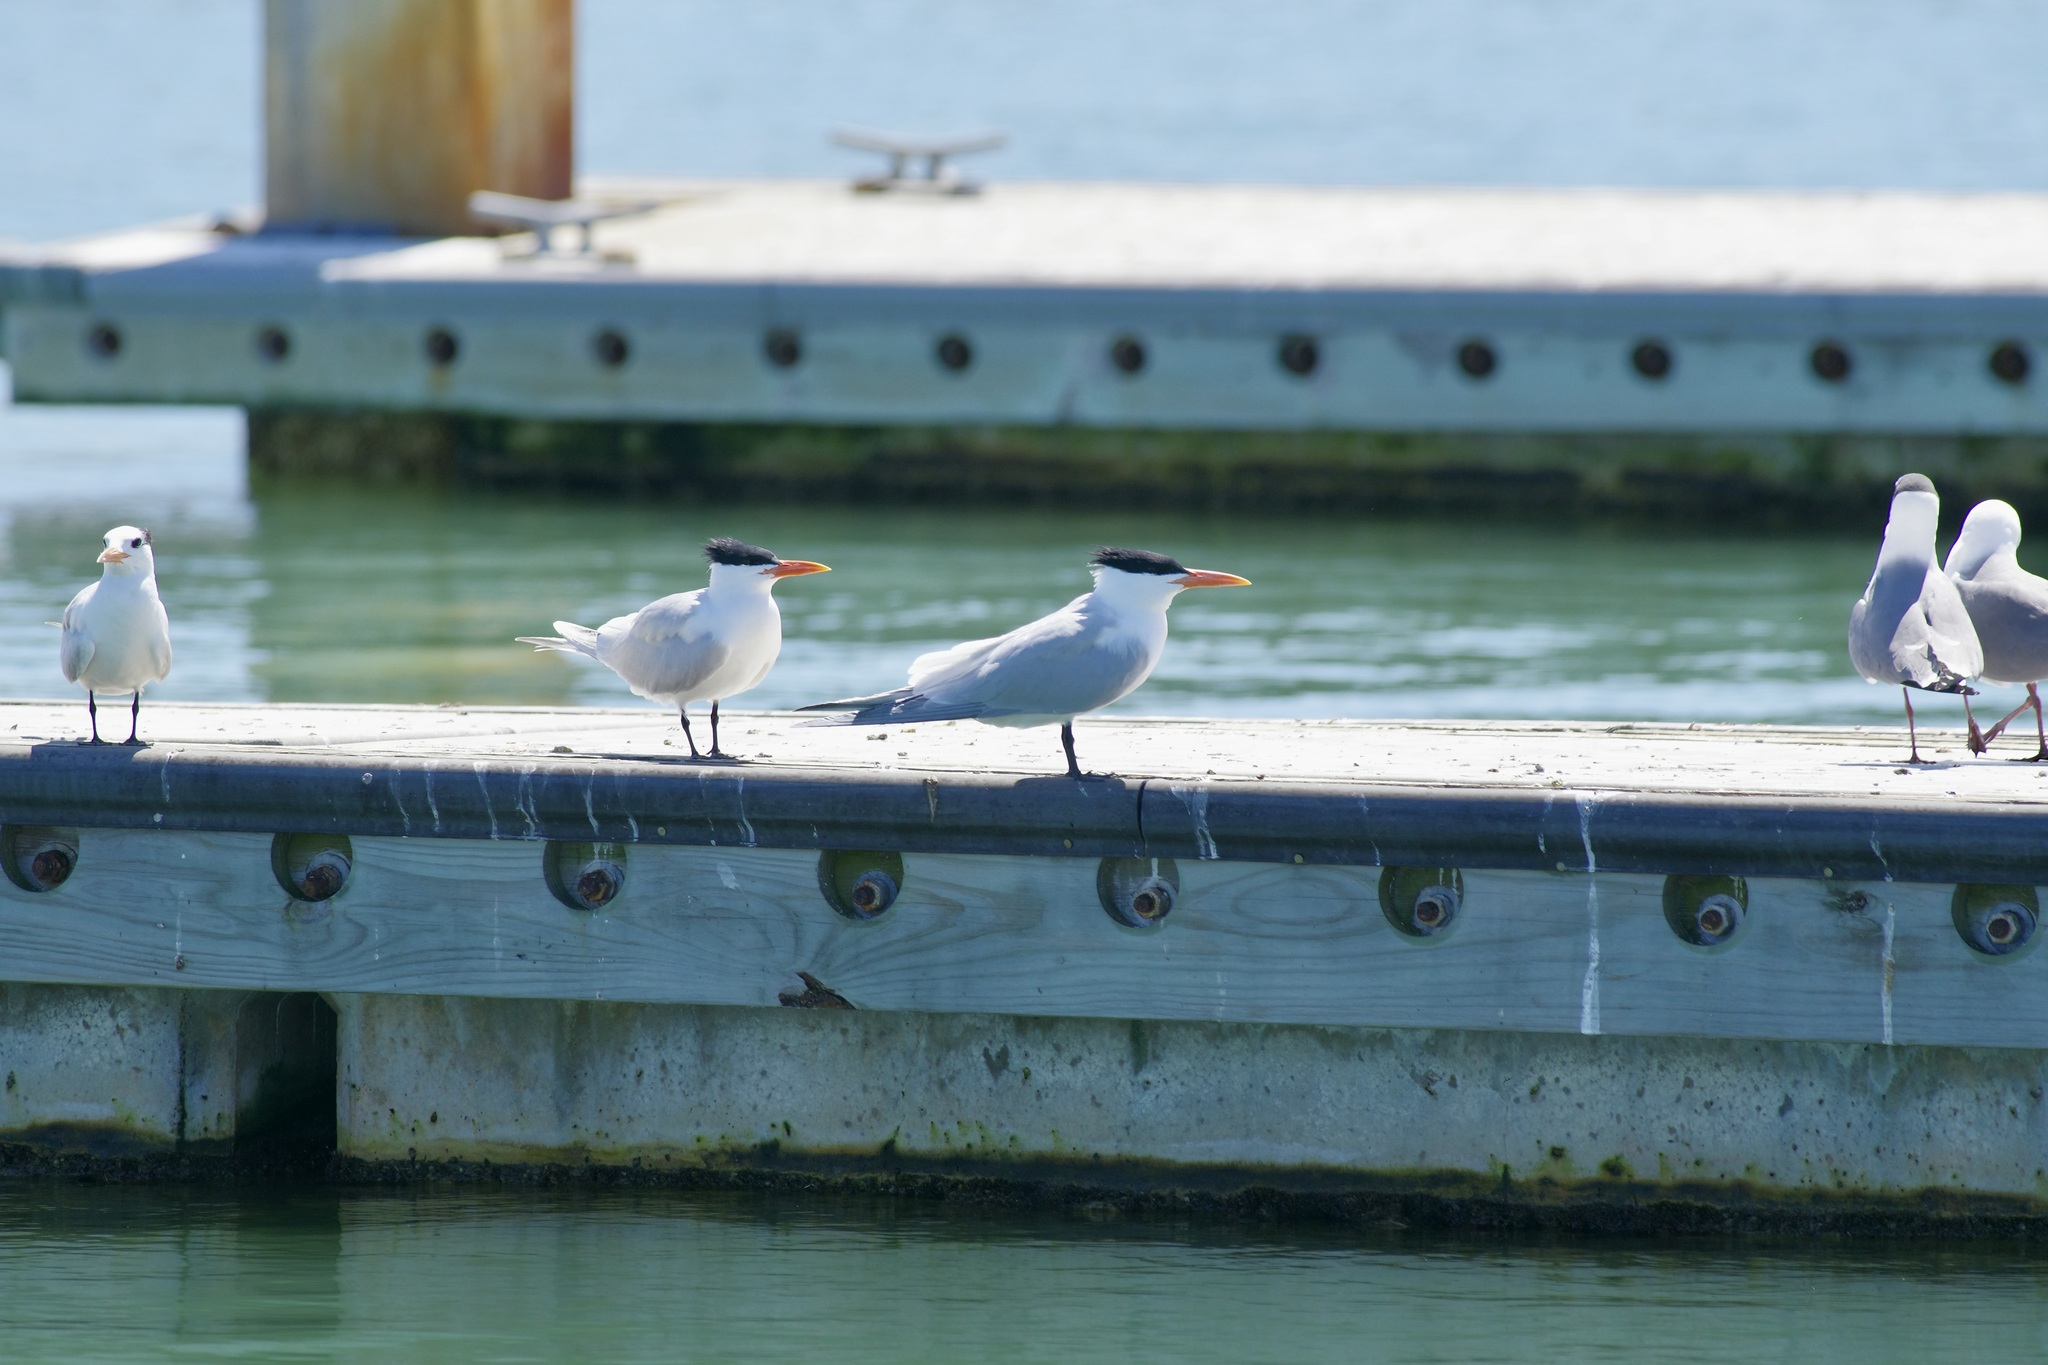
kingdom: Animalia
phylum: Chordata
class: Aves
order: Charadriiformes
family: Laridae
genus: Thalasseus
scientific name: Thalasseus maximus
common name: Royal tern
